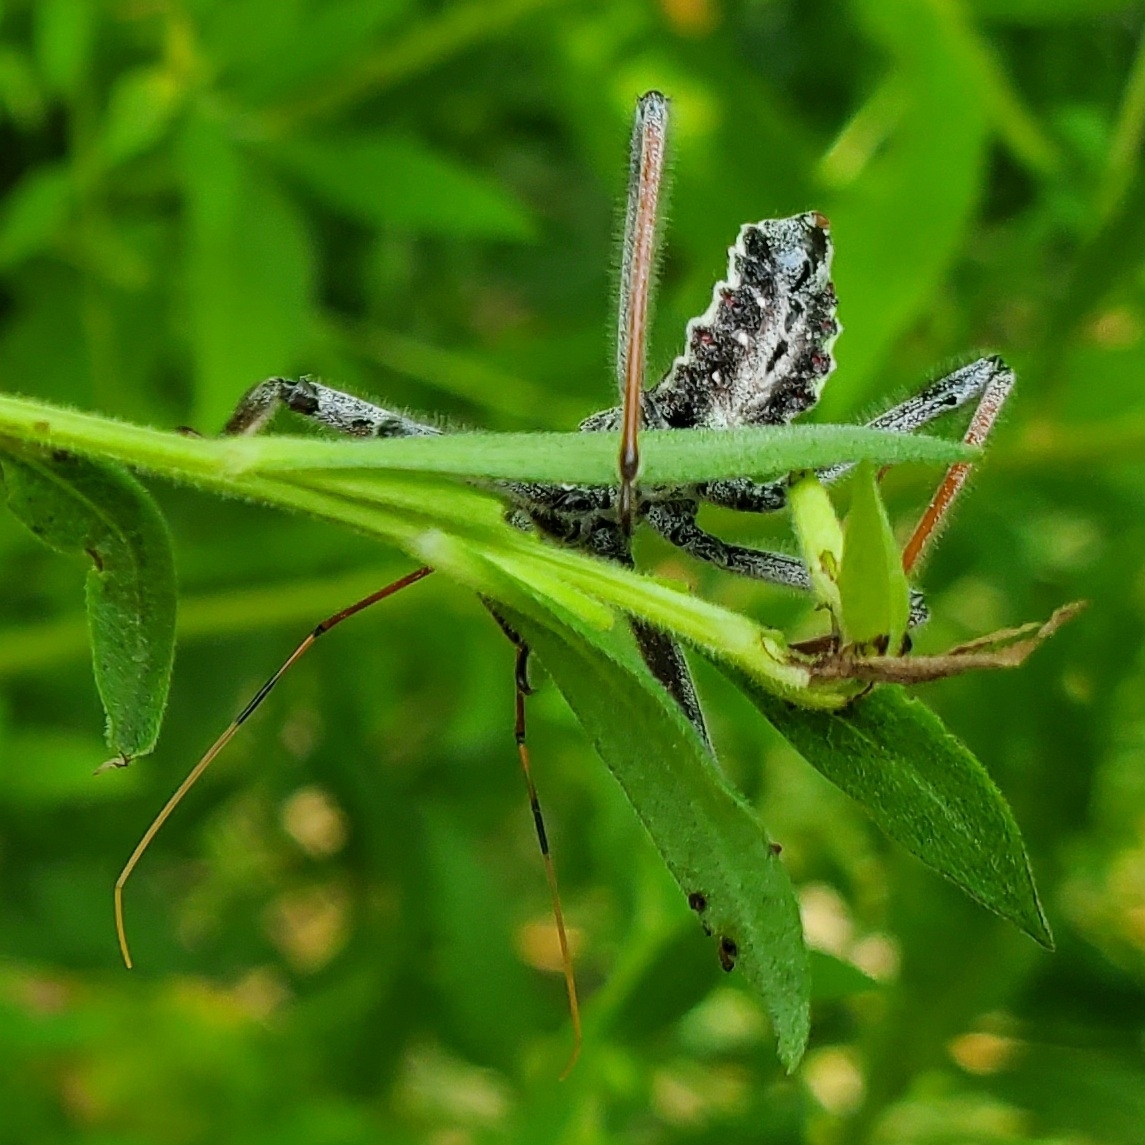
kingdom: Animalia
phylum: Arthropoda
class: Insecta
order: Hemiptera
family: Reduviidae
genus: Arilus
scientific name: Arilus cristatus
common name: North american wheel bug
